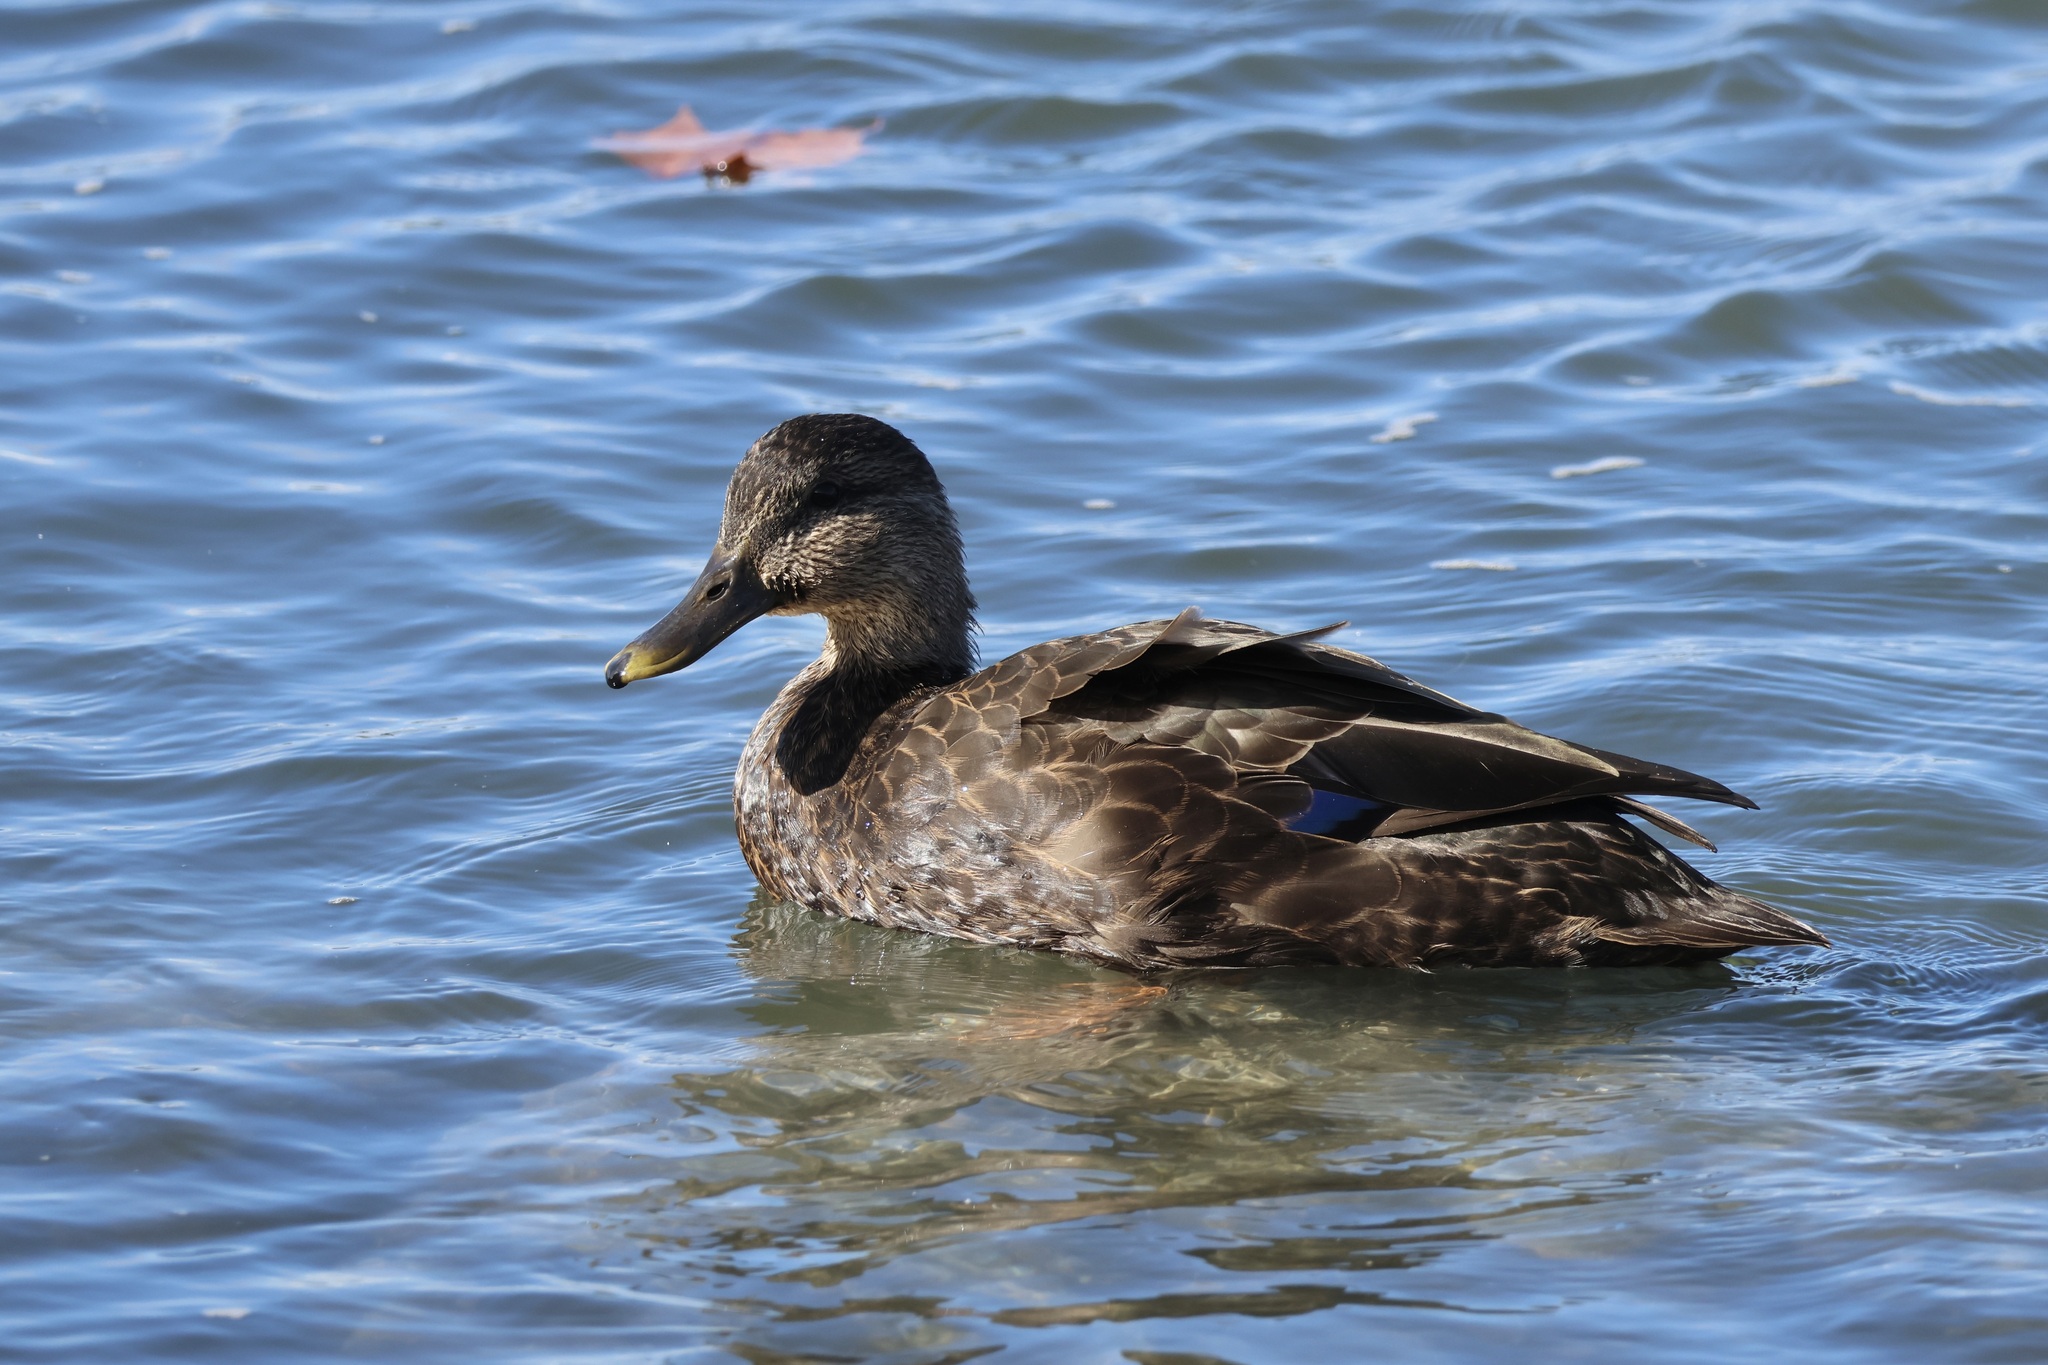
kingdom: Animalia
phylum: Chordata
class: Aves
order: Anseriformes
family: Anatidae
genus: Anas
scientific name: Anas rubripes
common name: American black duck
